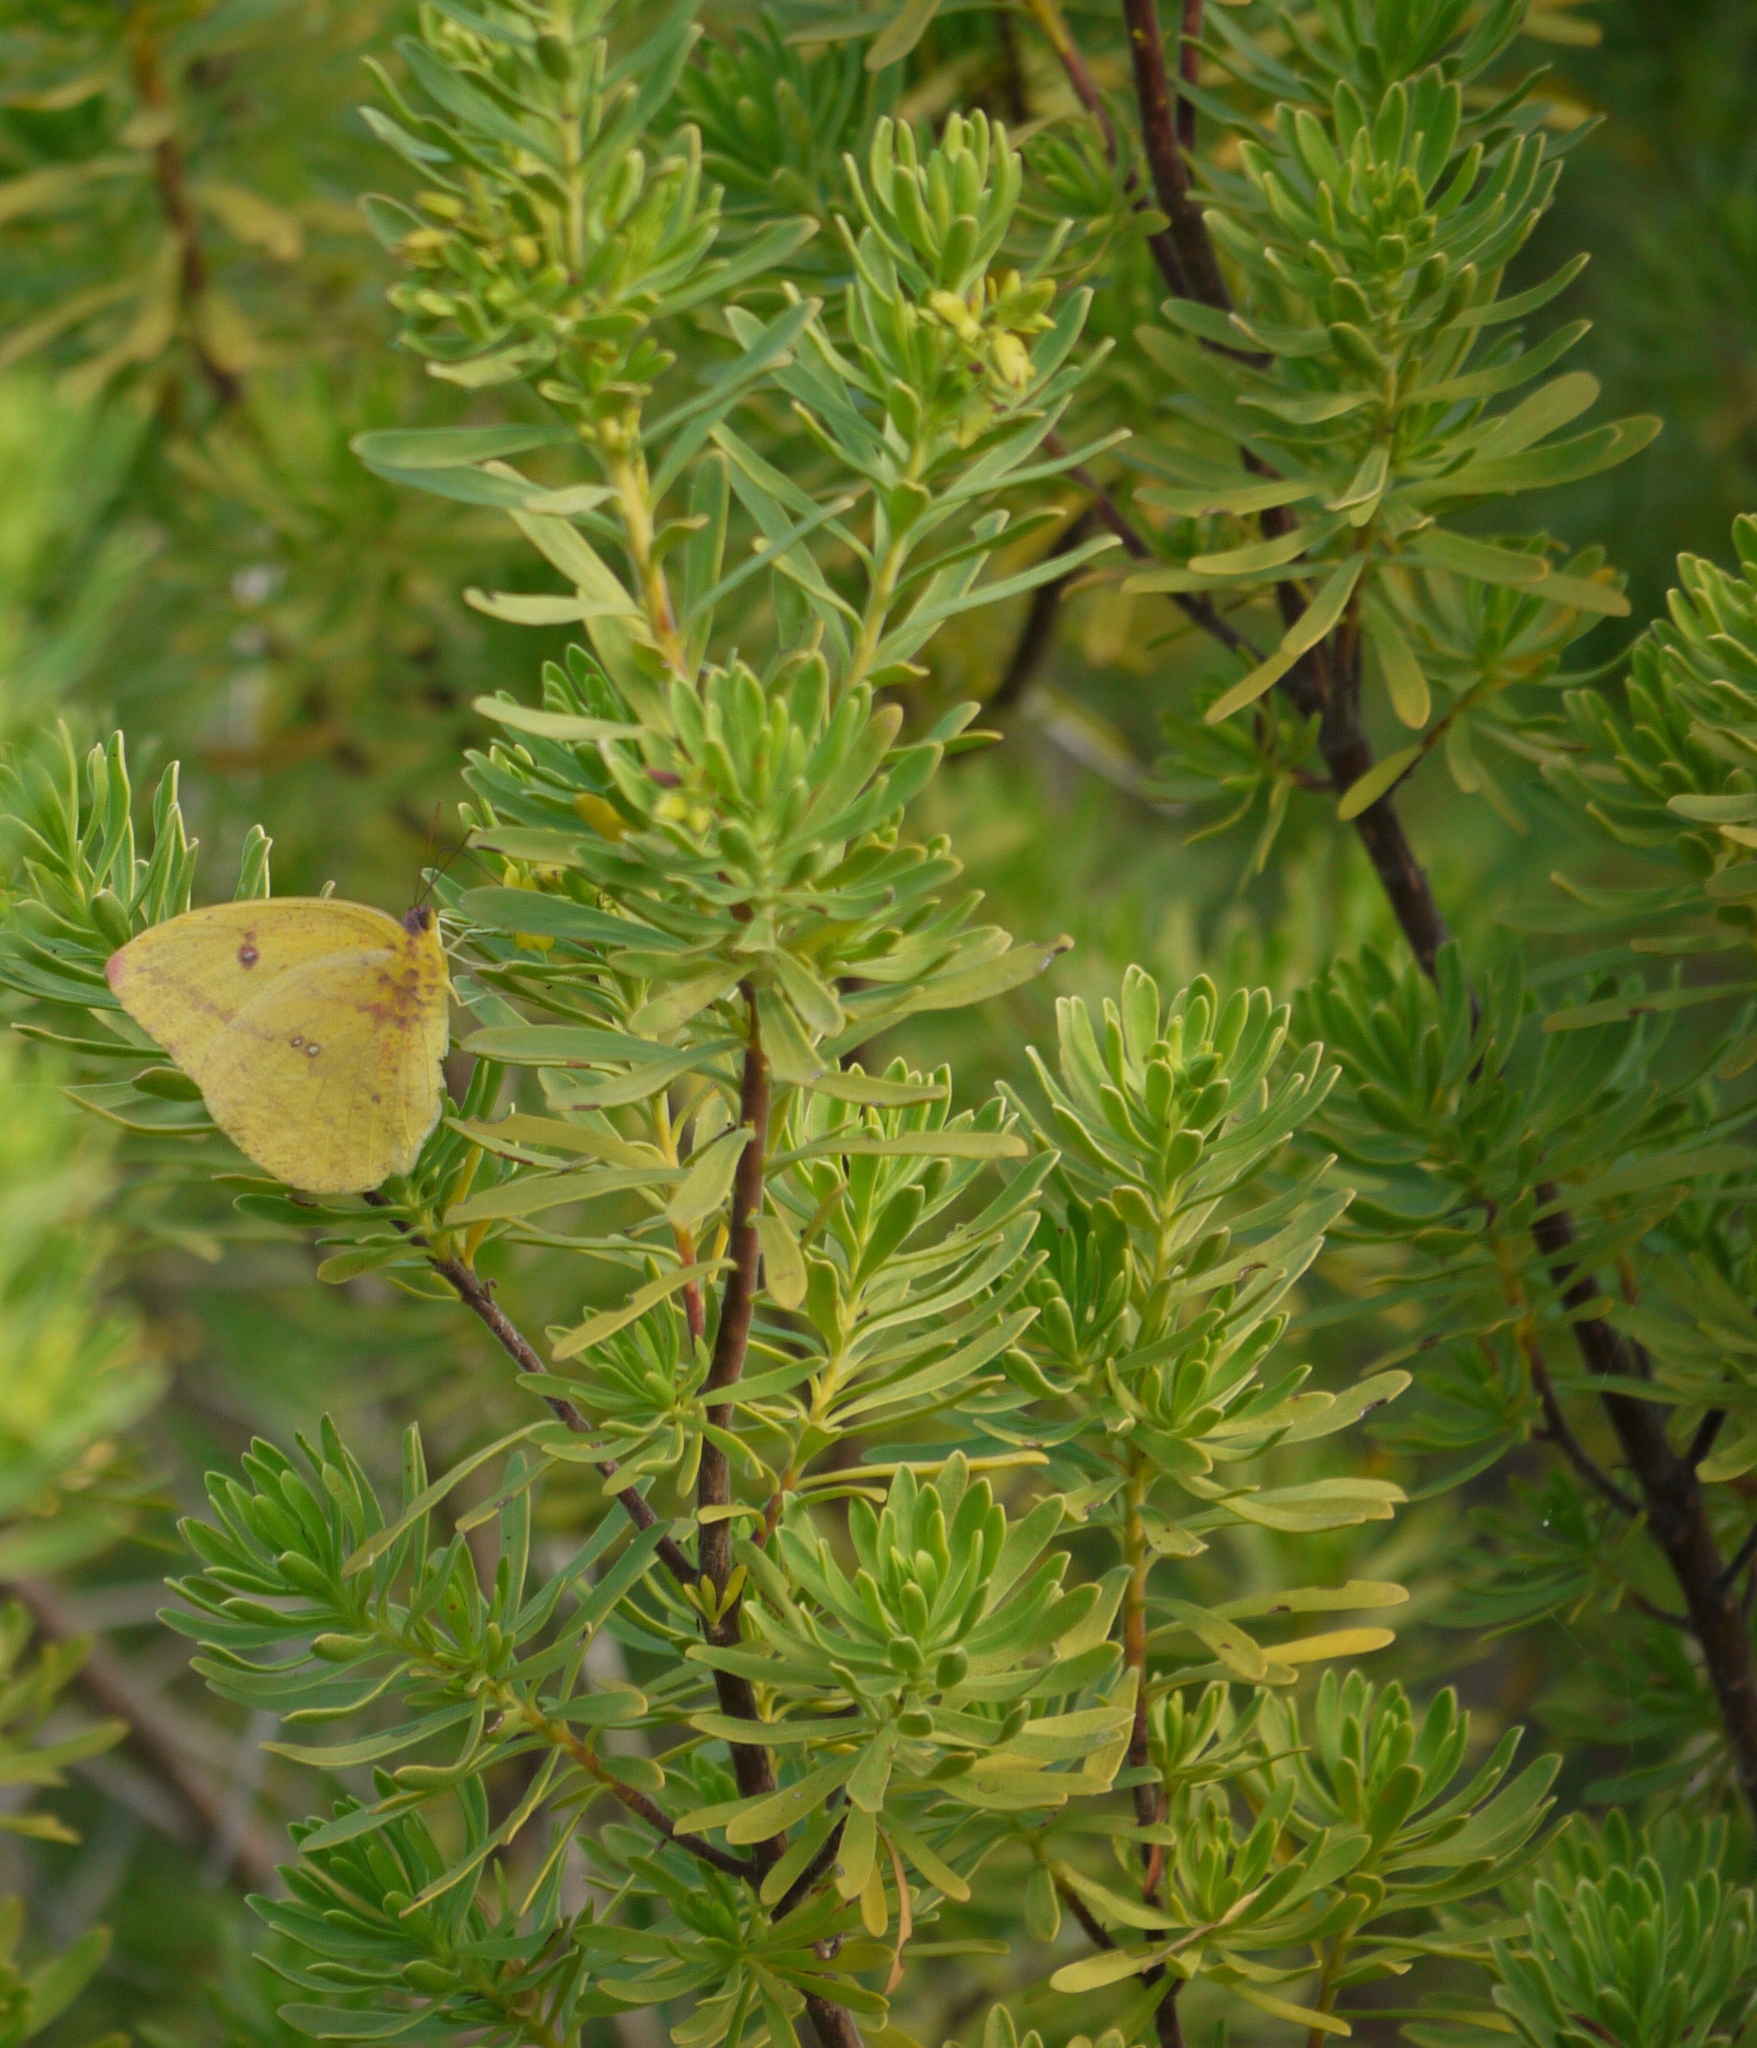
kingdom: Plantae
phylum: Tracheophyta
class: Magnoliopsida
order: Fabales
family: Surianaceae
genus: Suriana
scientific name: Suriana maritima
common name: Bay-cedar
